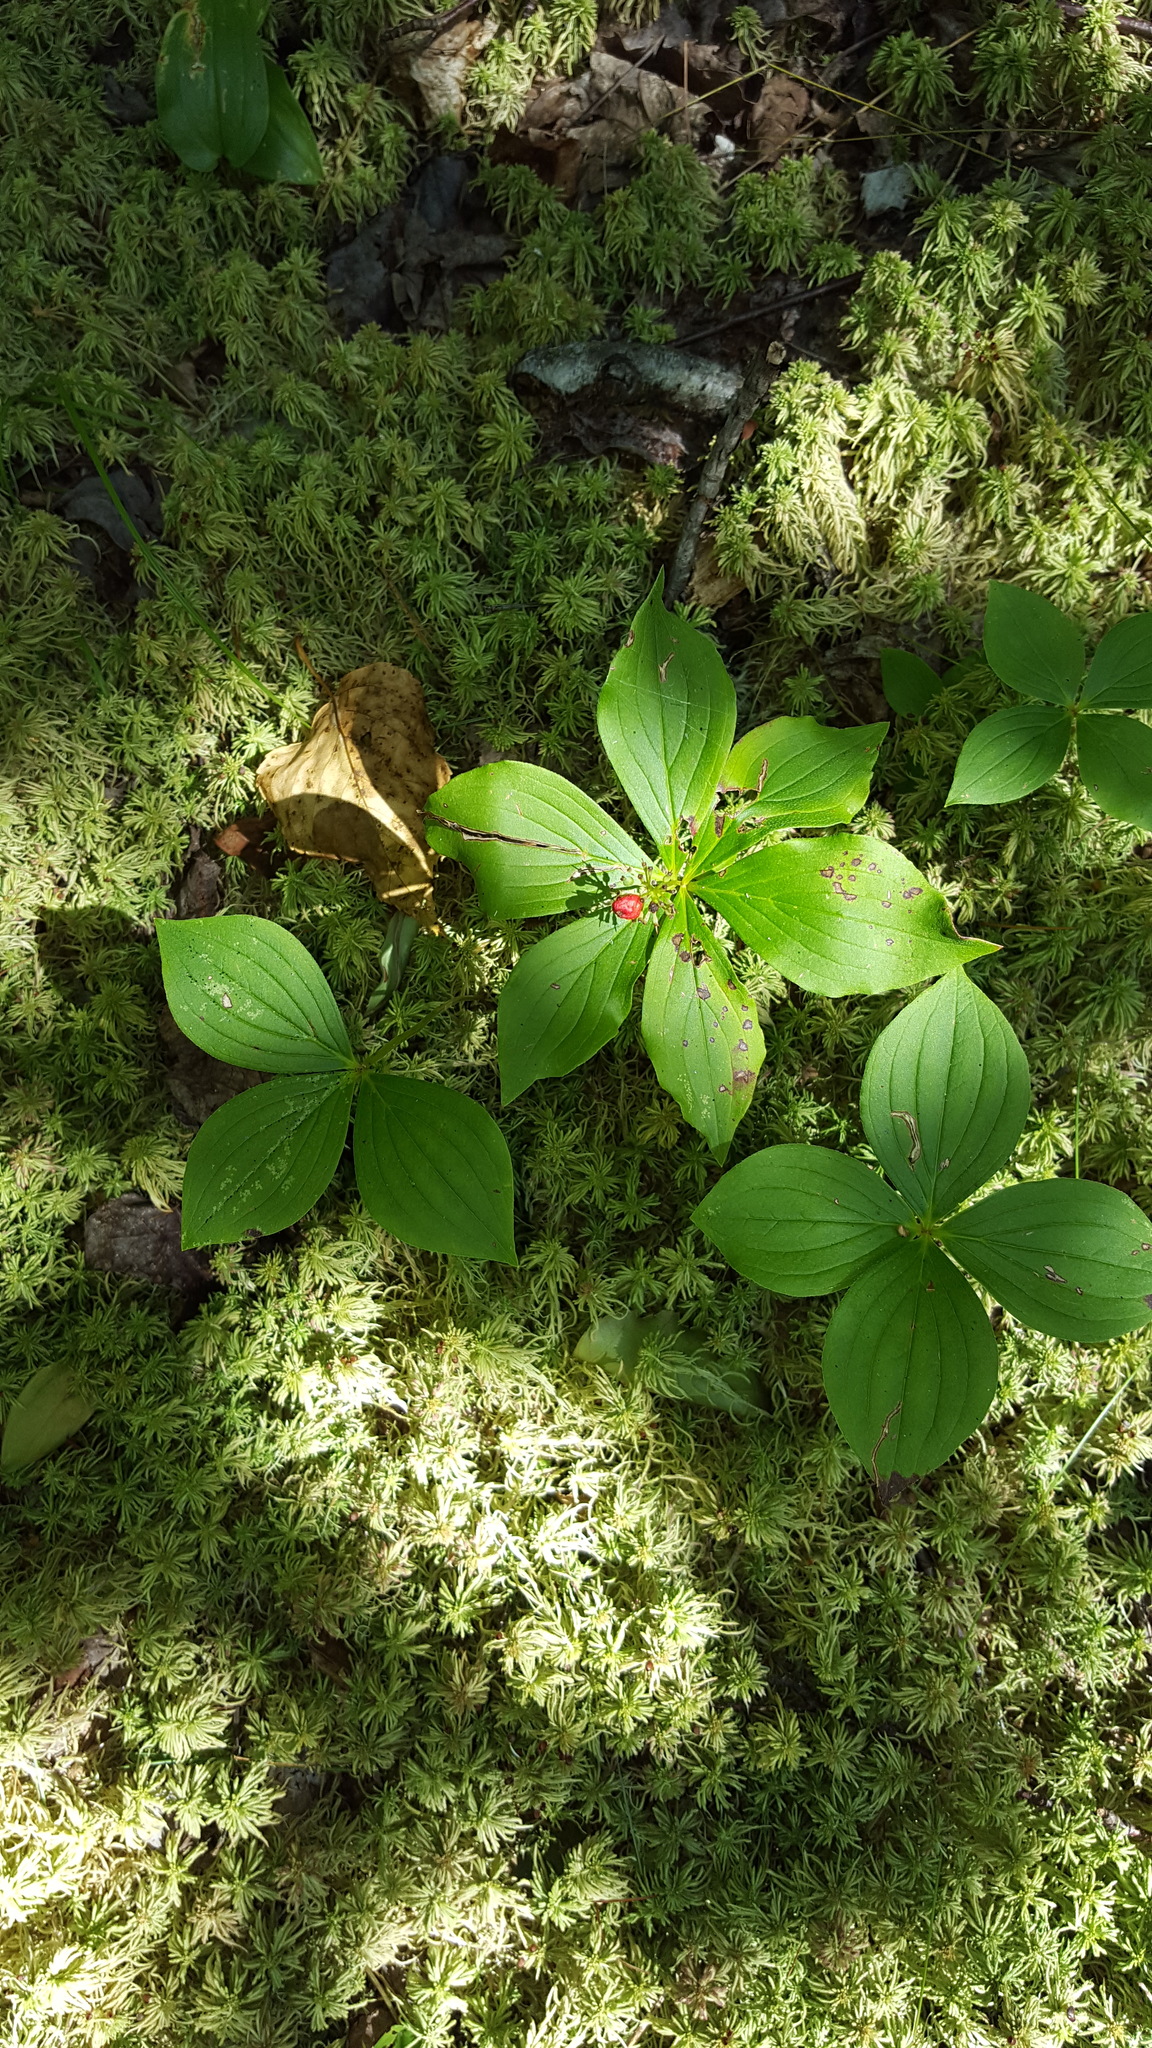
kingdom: Plantae
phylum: Tracheophyta
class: Magnoliopsida
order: Cornales
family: Cornaceae
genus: Cornus
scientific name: Cornus canadensis
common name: Creeping dogwood
